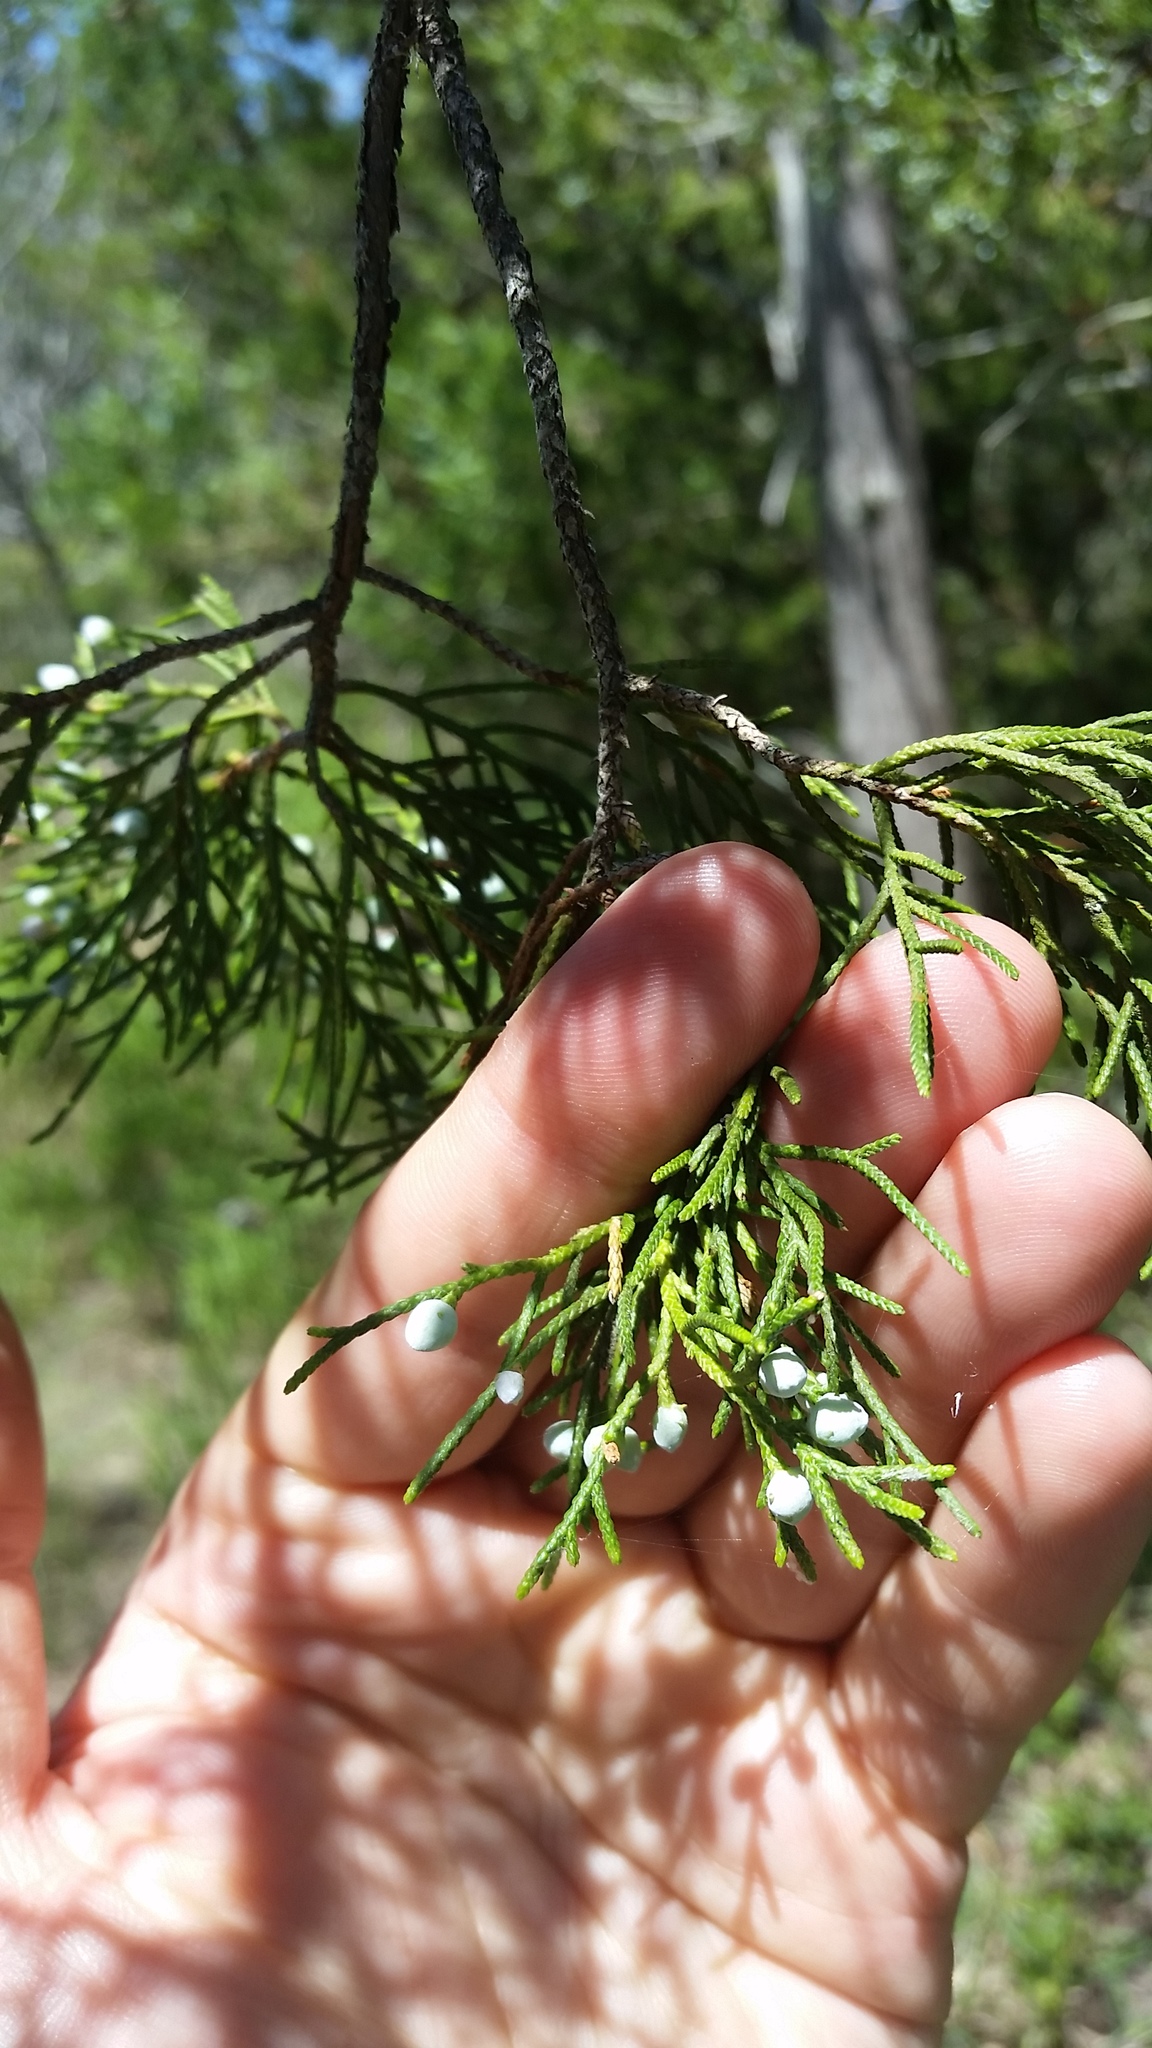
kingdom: Plantae
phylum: Tracheophyta
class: Pinopsida
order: Pinales
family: Cupressaceae
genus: Juniperus
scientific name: Juniperus virginiana
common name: Red juniper
